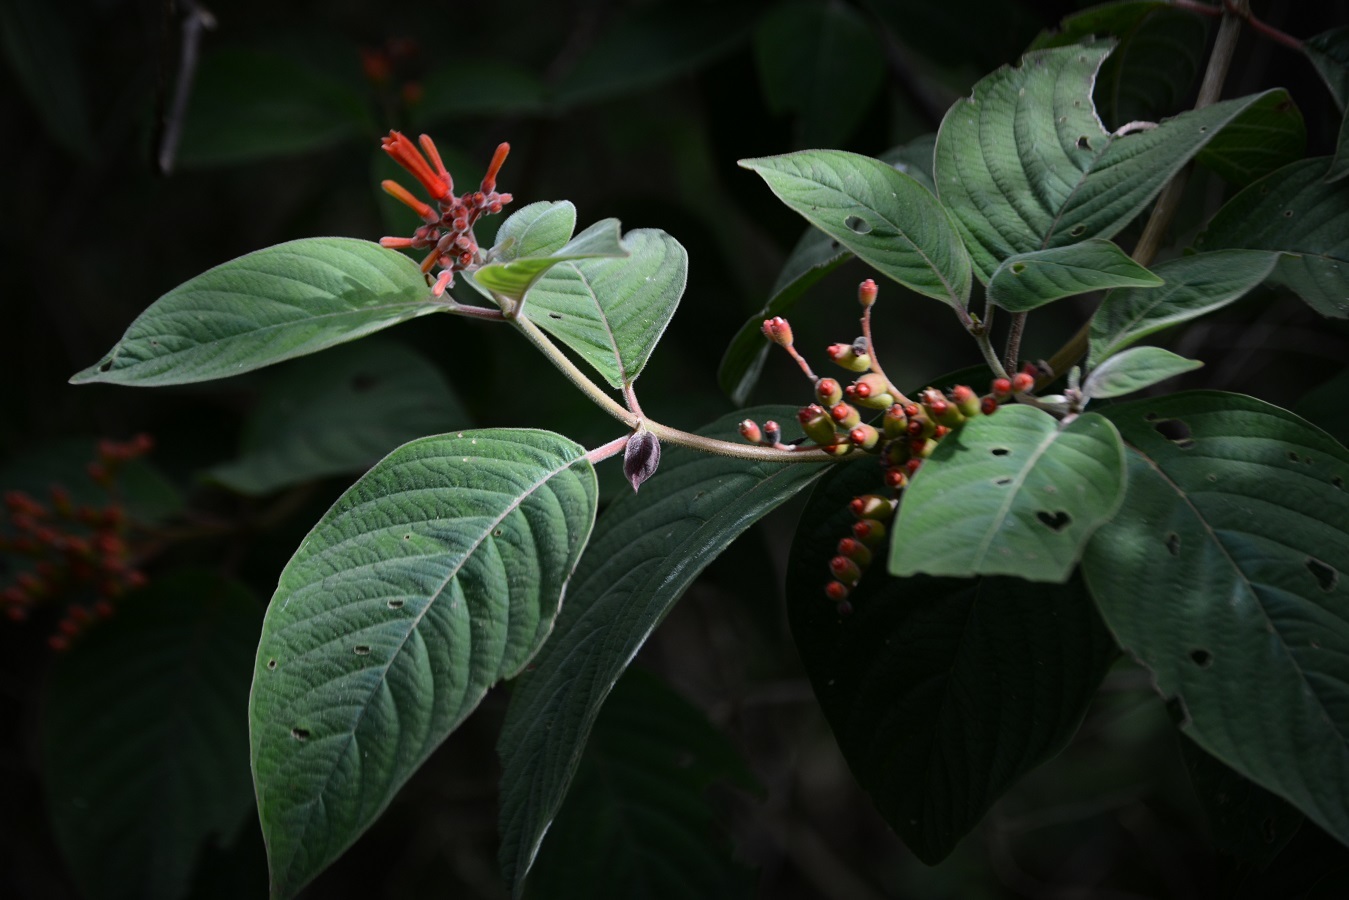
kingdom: Plantae
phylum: Tracheophyta
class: Magnoliopsida
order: Gentianales
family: Rubiaceae
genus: Hamelia
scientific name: Hamelia patens
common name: Redhead
